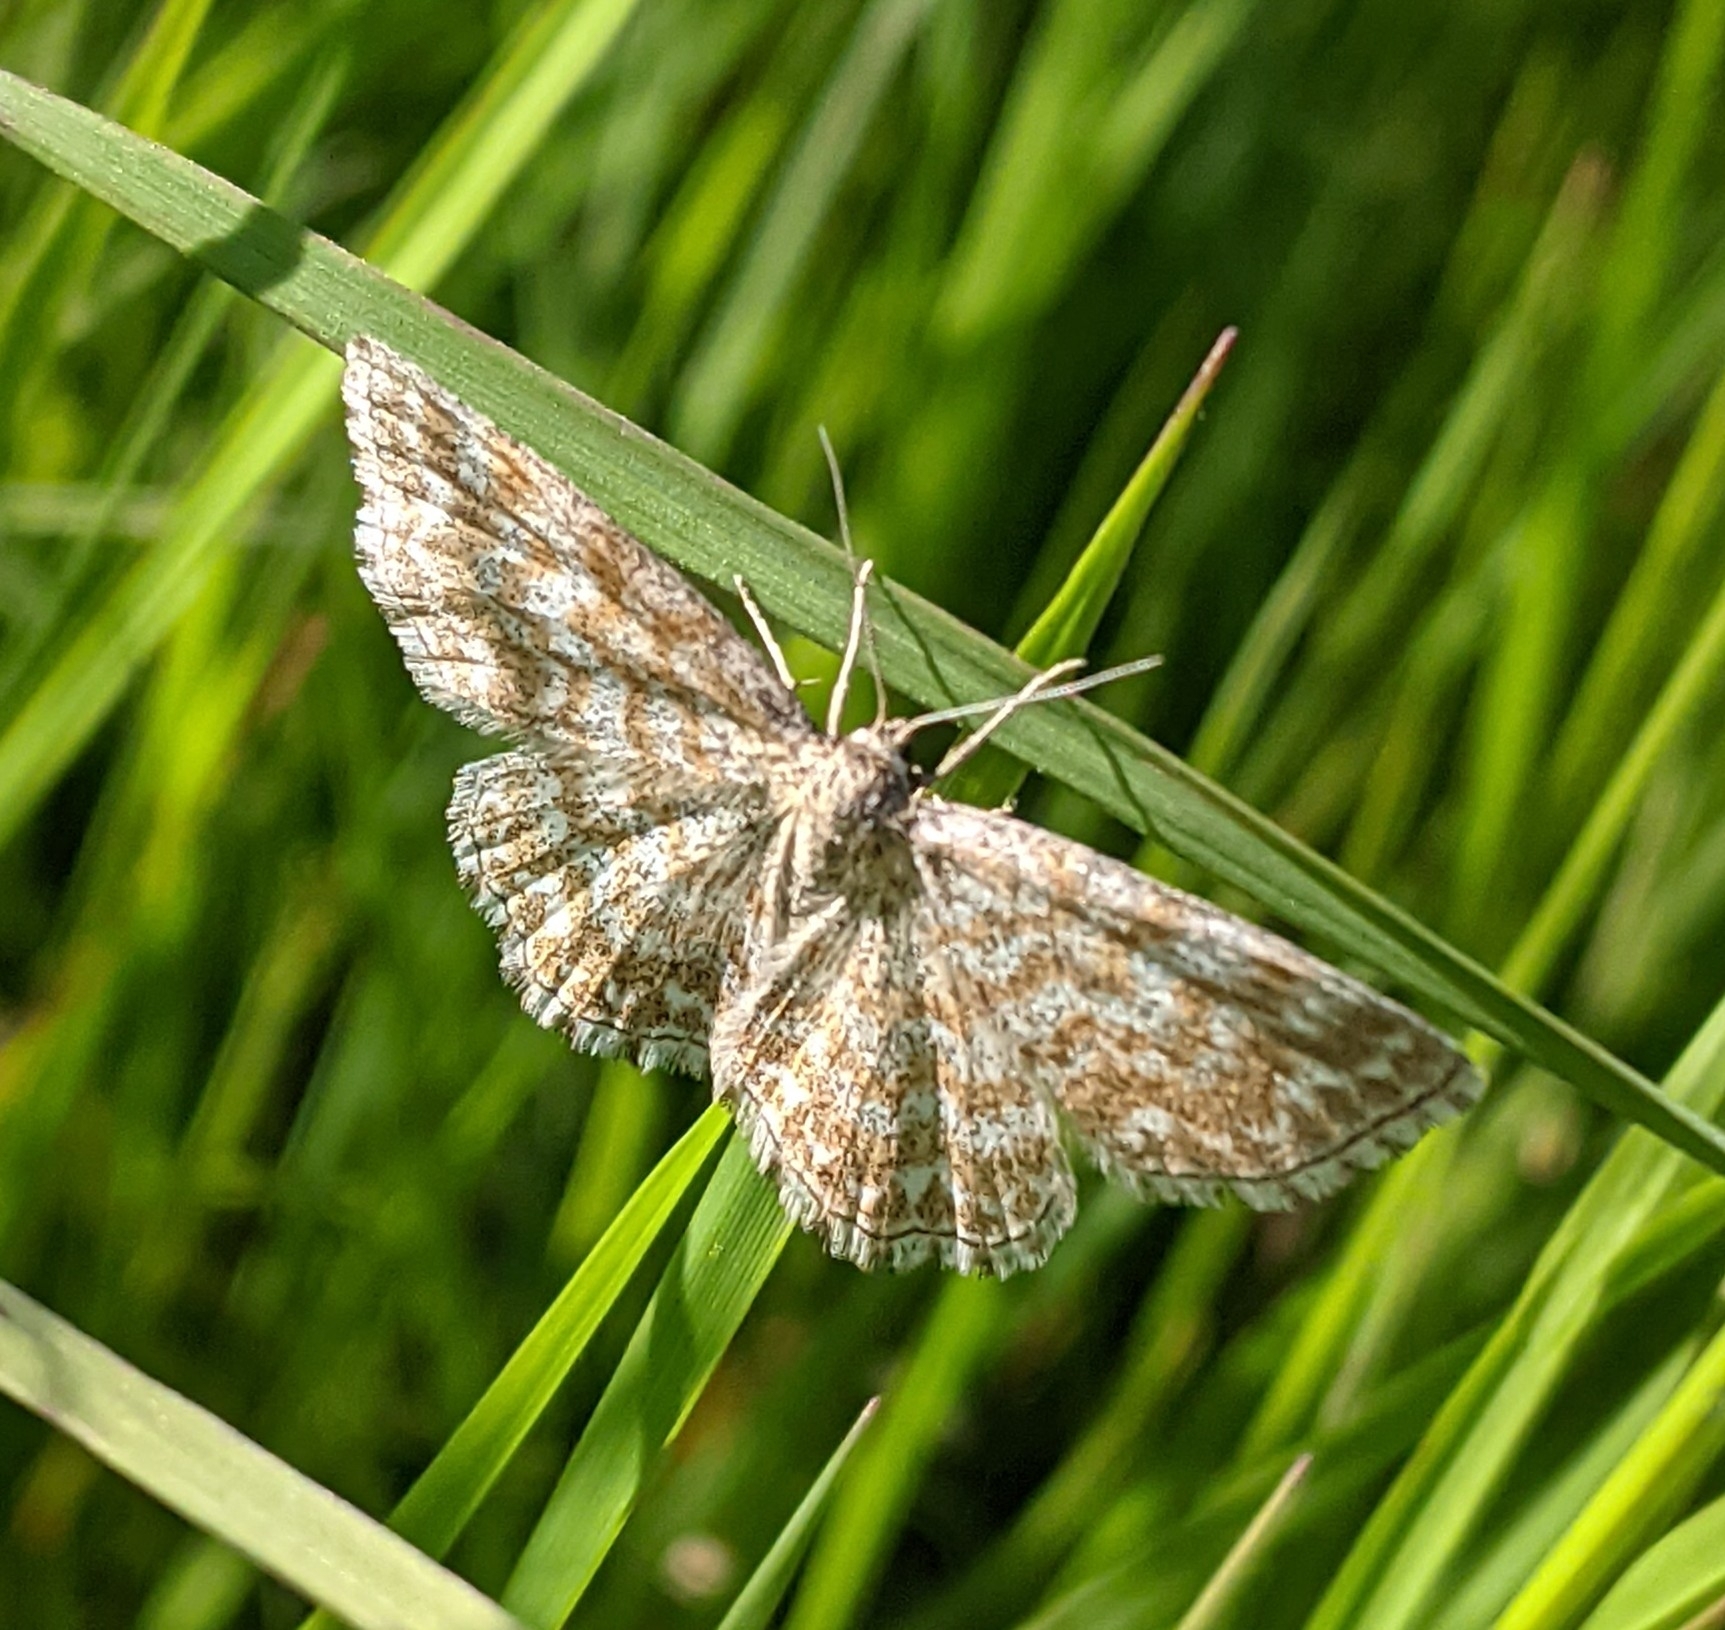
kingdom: Animalia
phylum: Arthropoda
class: Insecta
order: Lepidoptera
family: Geometridae
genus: Scopula
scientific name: Scopula immorata
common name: Lewes wave
